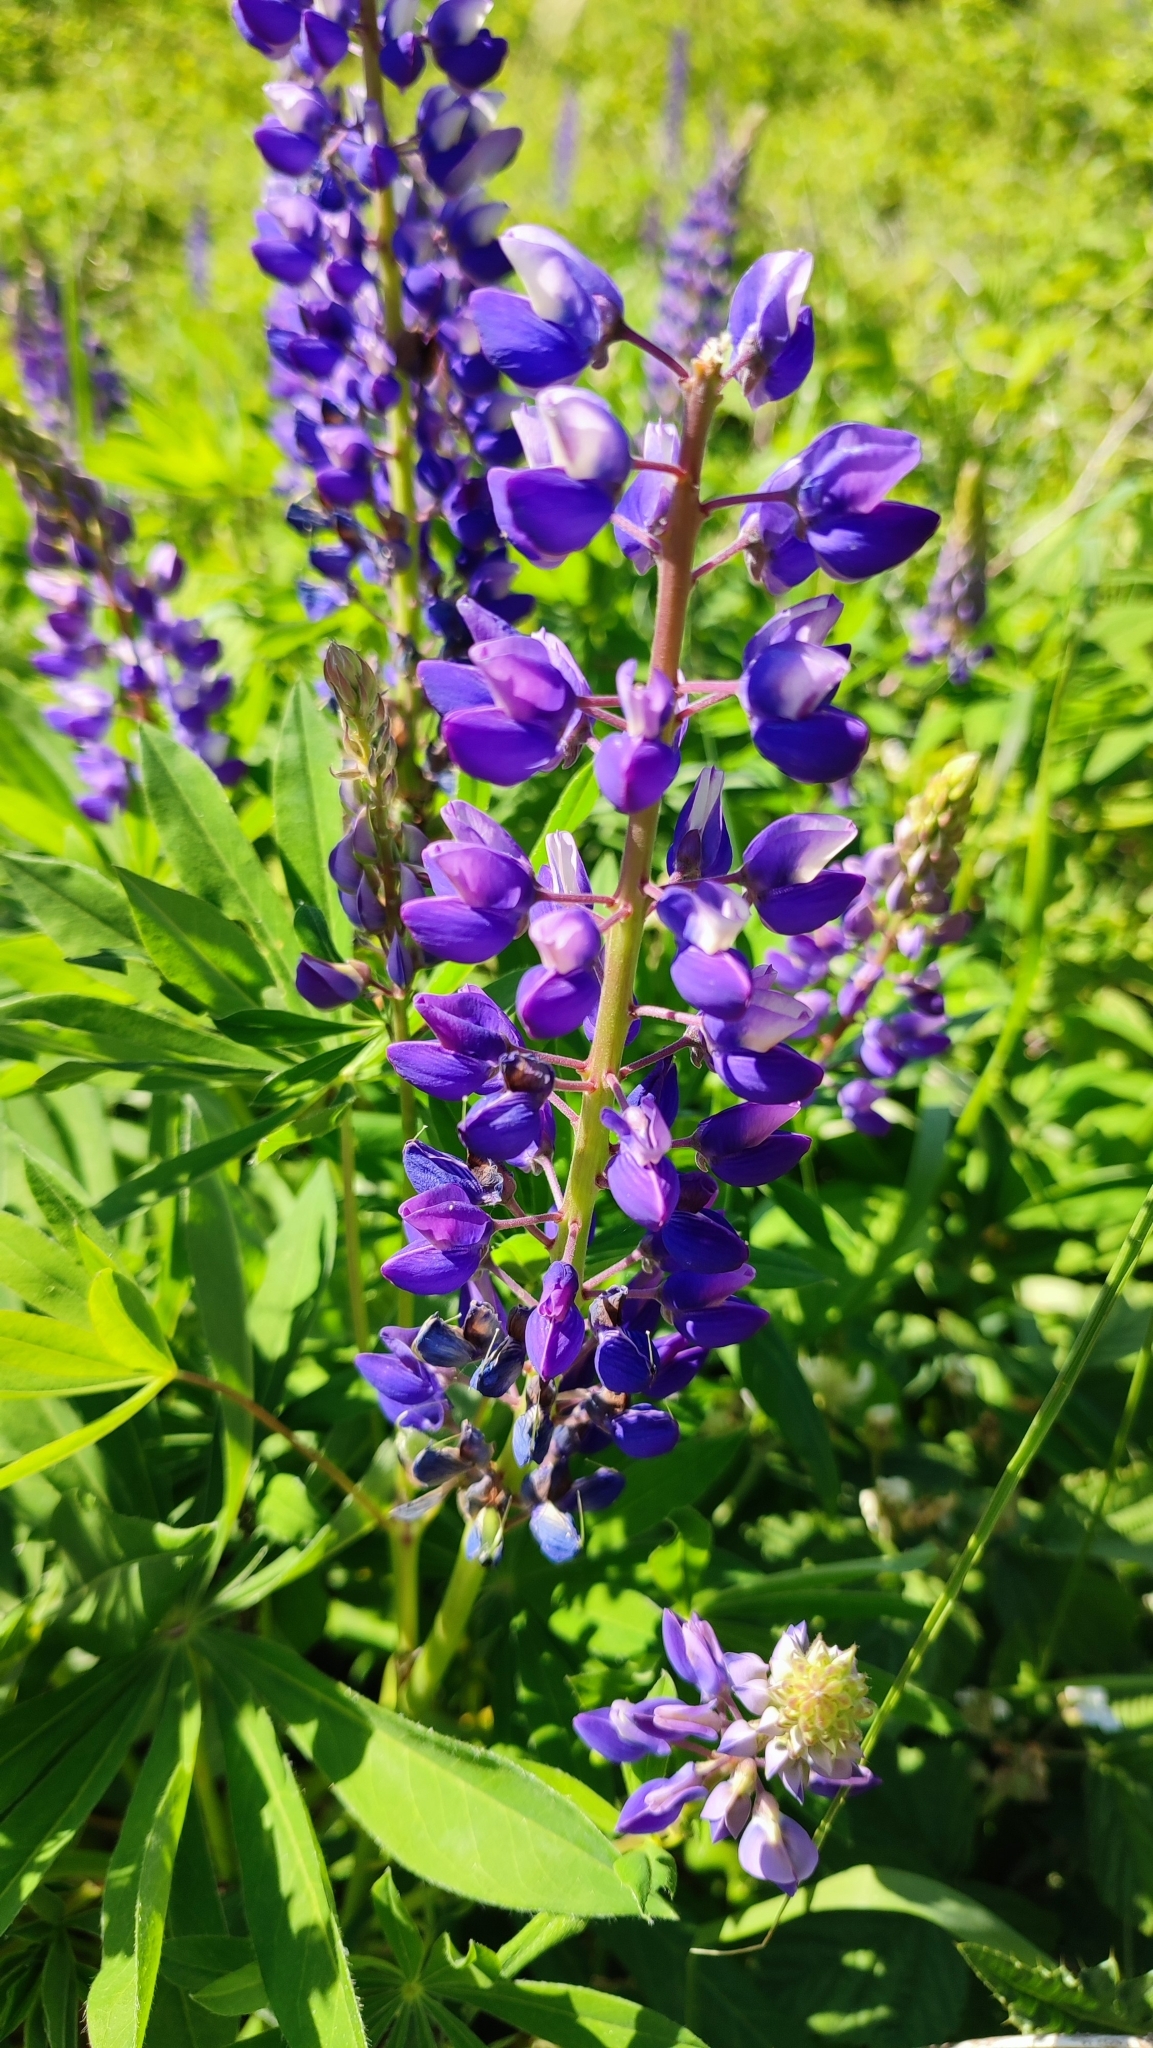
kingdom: Plantae
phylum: Tracheophyta
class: Magnoliopsida
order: Fabales
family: Fabaceae
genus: Lupinus
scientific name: Lupinus polyphyllus
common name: Garden lupin
